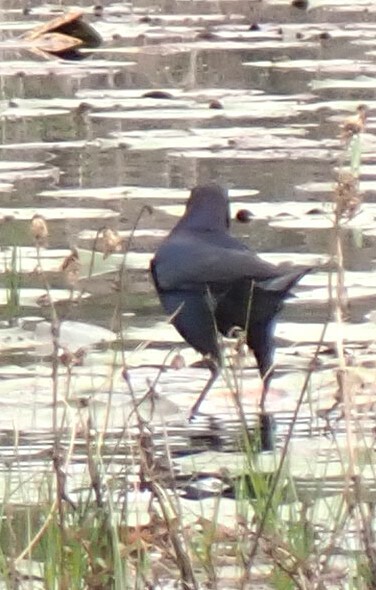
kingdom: Animalia
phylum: Chordata
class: Aves
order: Passeriformes
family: Icteridae
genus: Quiscalus
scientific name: Quiscalus major
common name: Boat-tailed grackle
